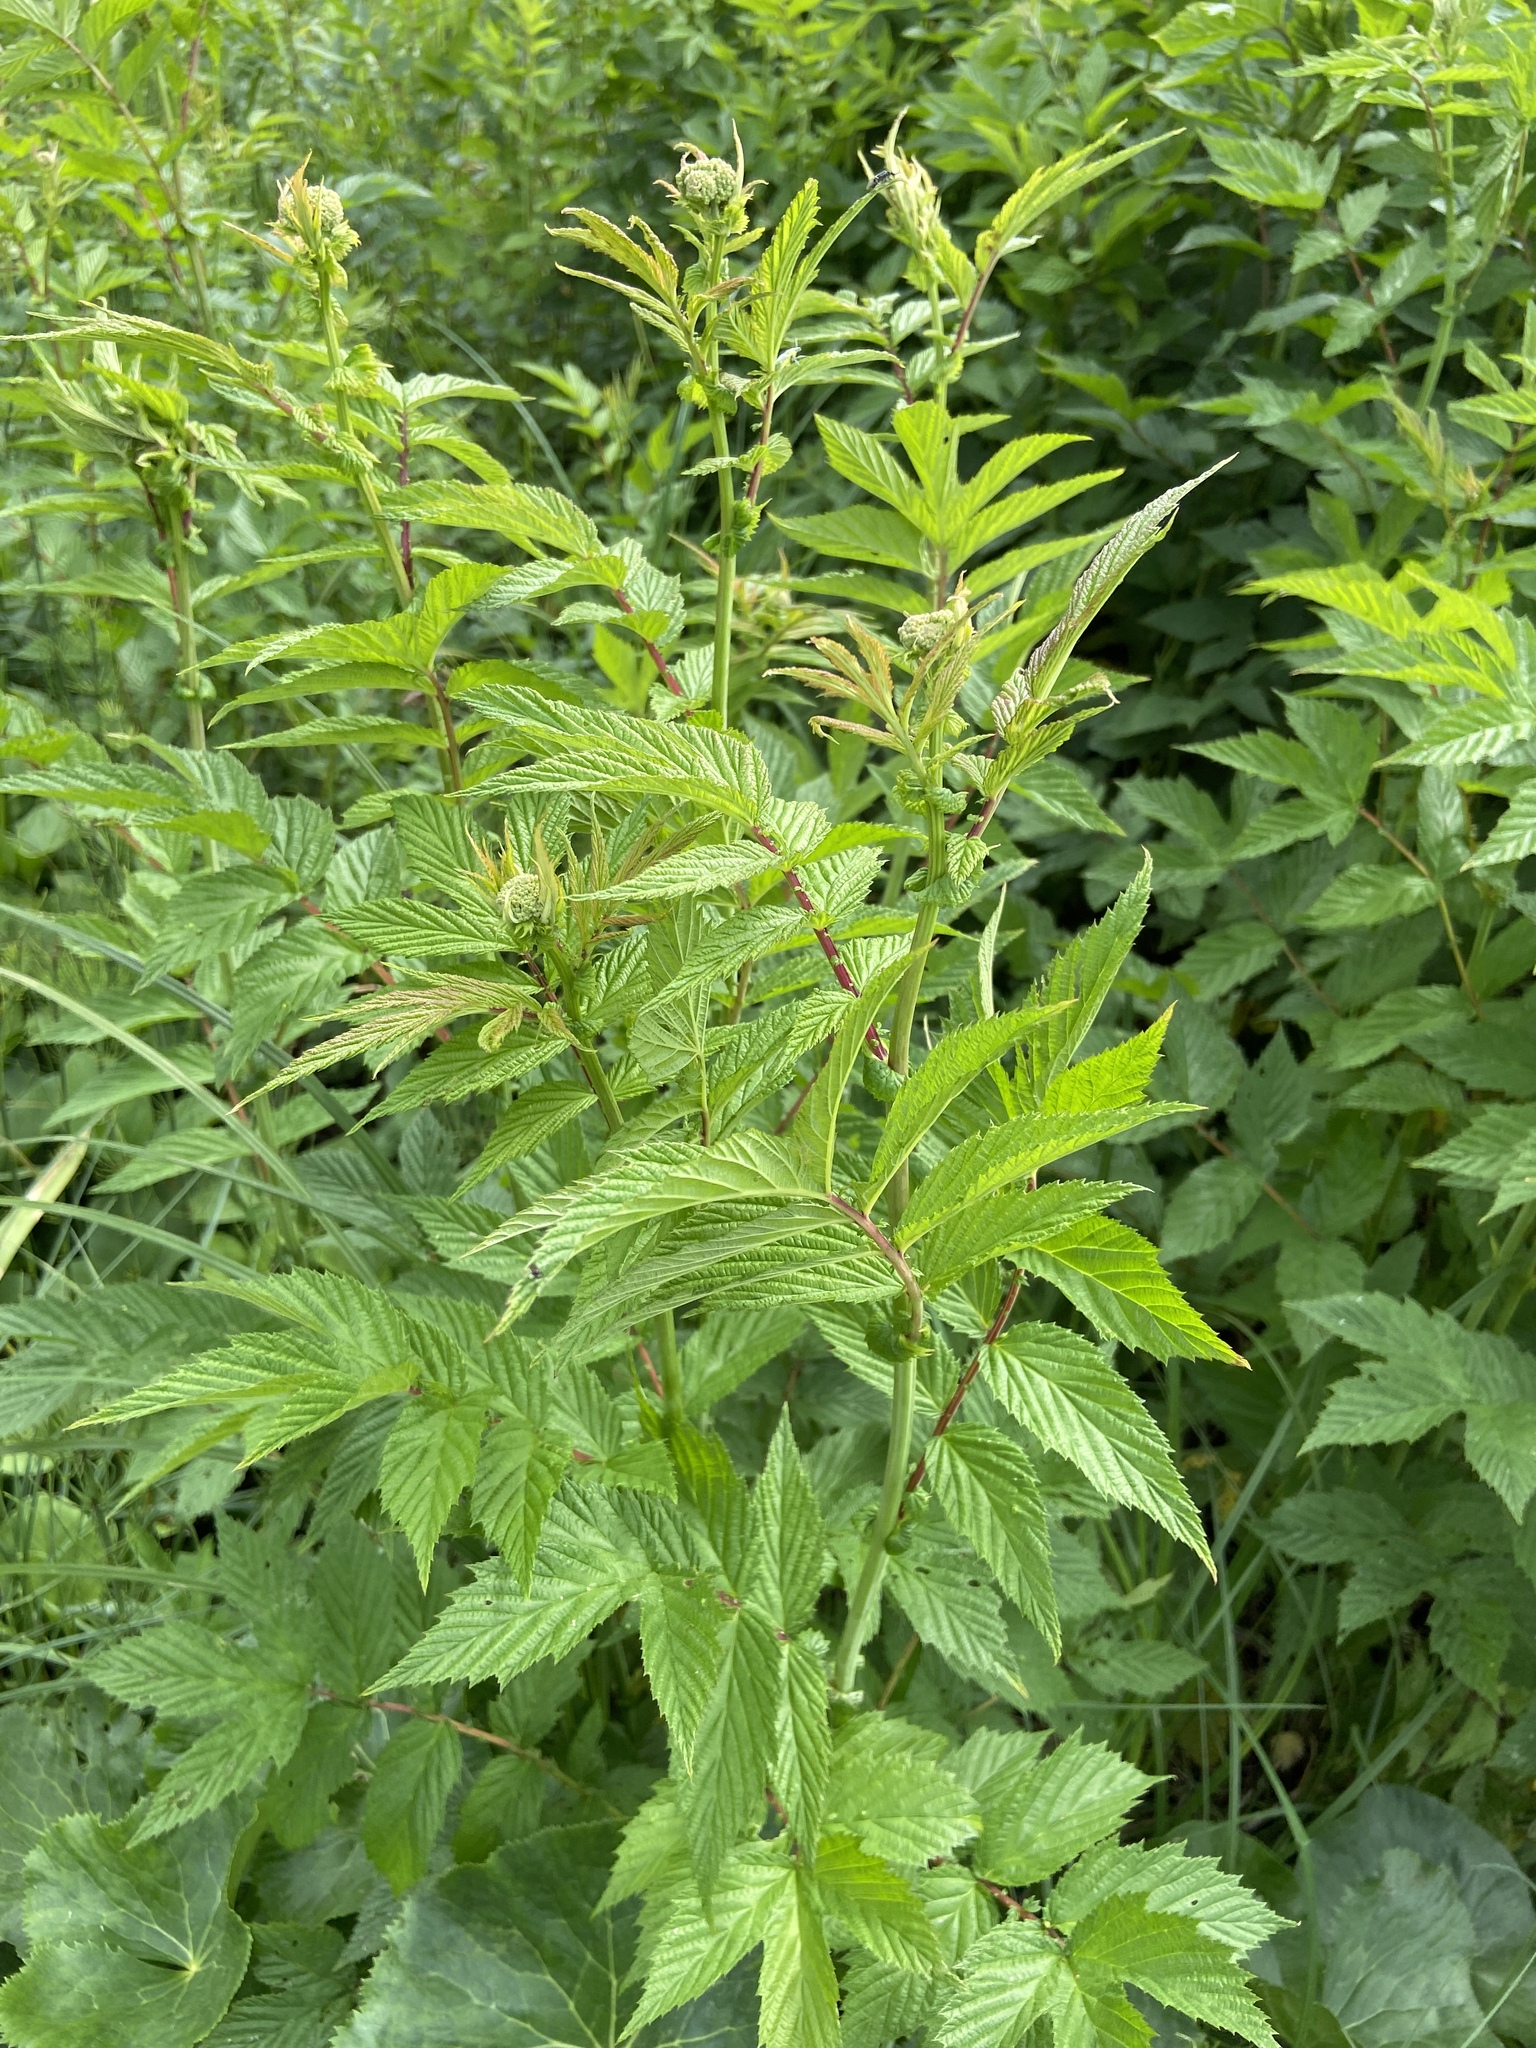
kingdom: Plantae
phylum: Tracheophyta
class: Magnoliopsida
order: Rosales
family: Rosaceae
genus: Filipendula
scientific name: Filipendula ulmaria
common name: Meadowsweet
